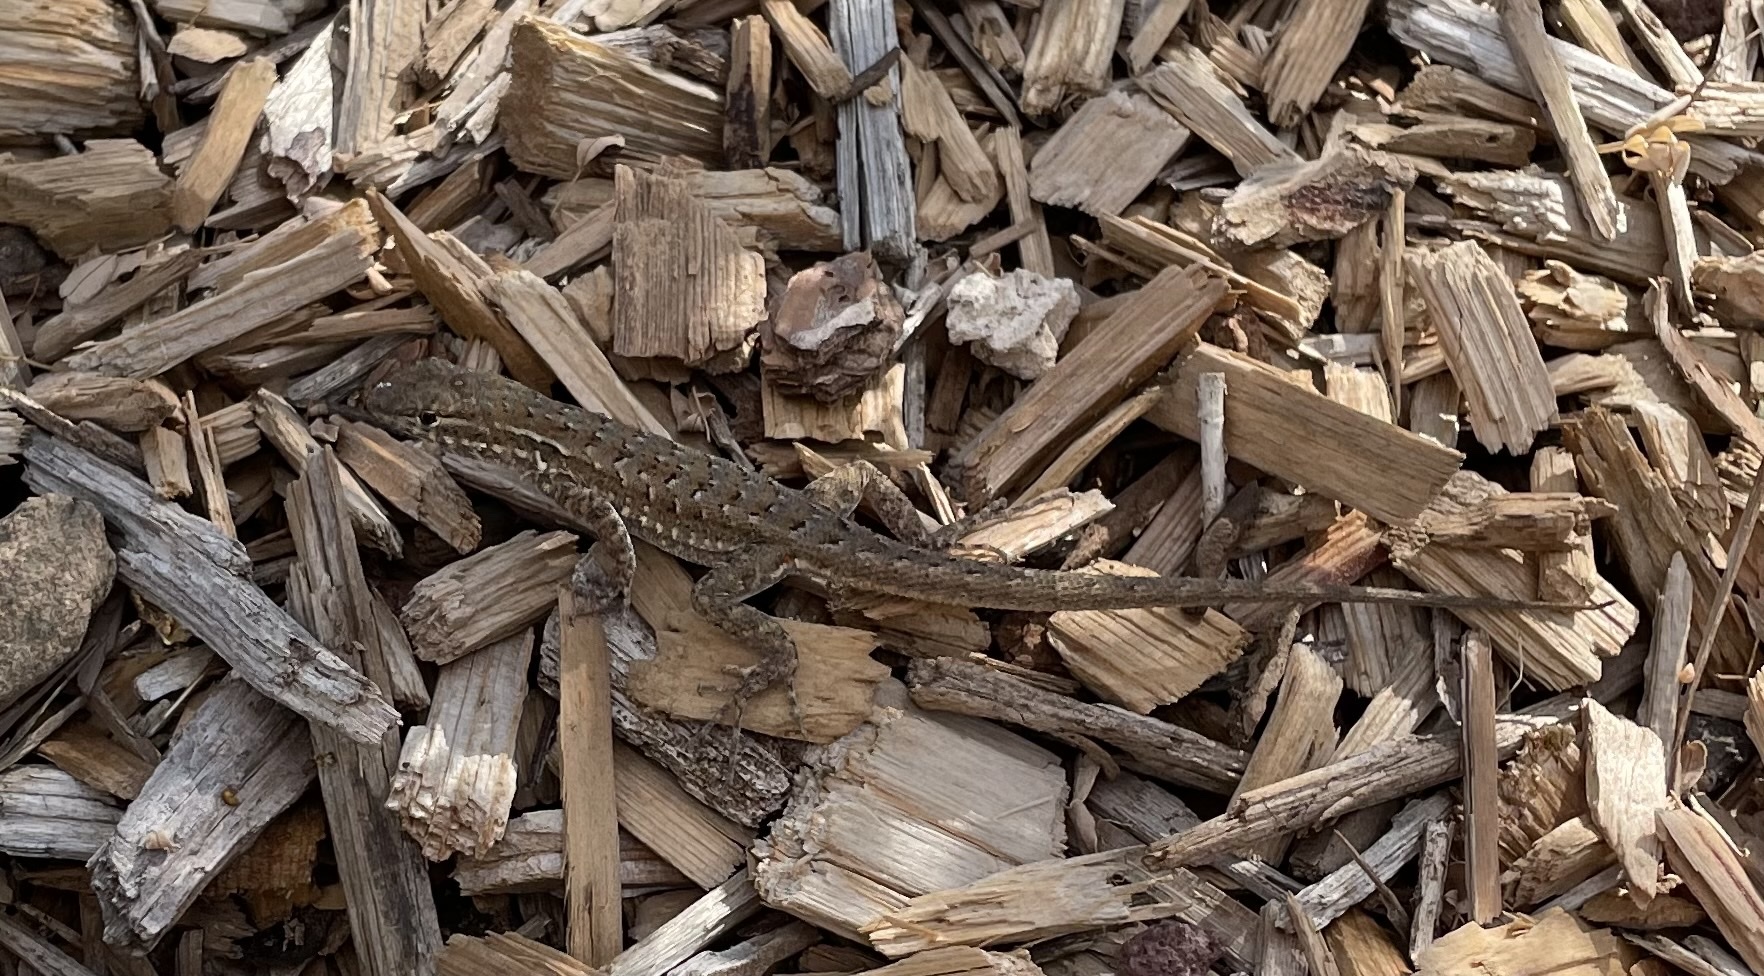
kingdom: Animalia
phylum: Chordata
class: Squamata
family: Phrynosomatidae
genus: Uta
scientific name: Uta stansburiana
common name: Side-blotched lizard
